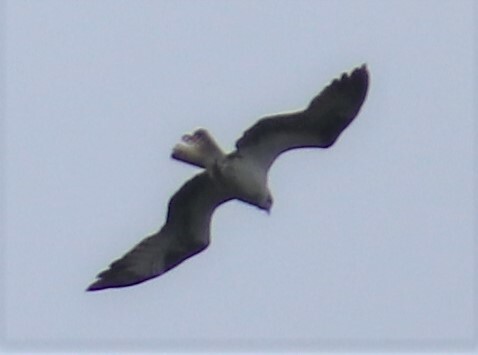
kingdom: Animalia
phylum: Chordata
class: Aves
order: Accipitriformes
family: Pandionidae
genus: Pandion
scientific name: Pandion haliaetus
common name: Osprey
